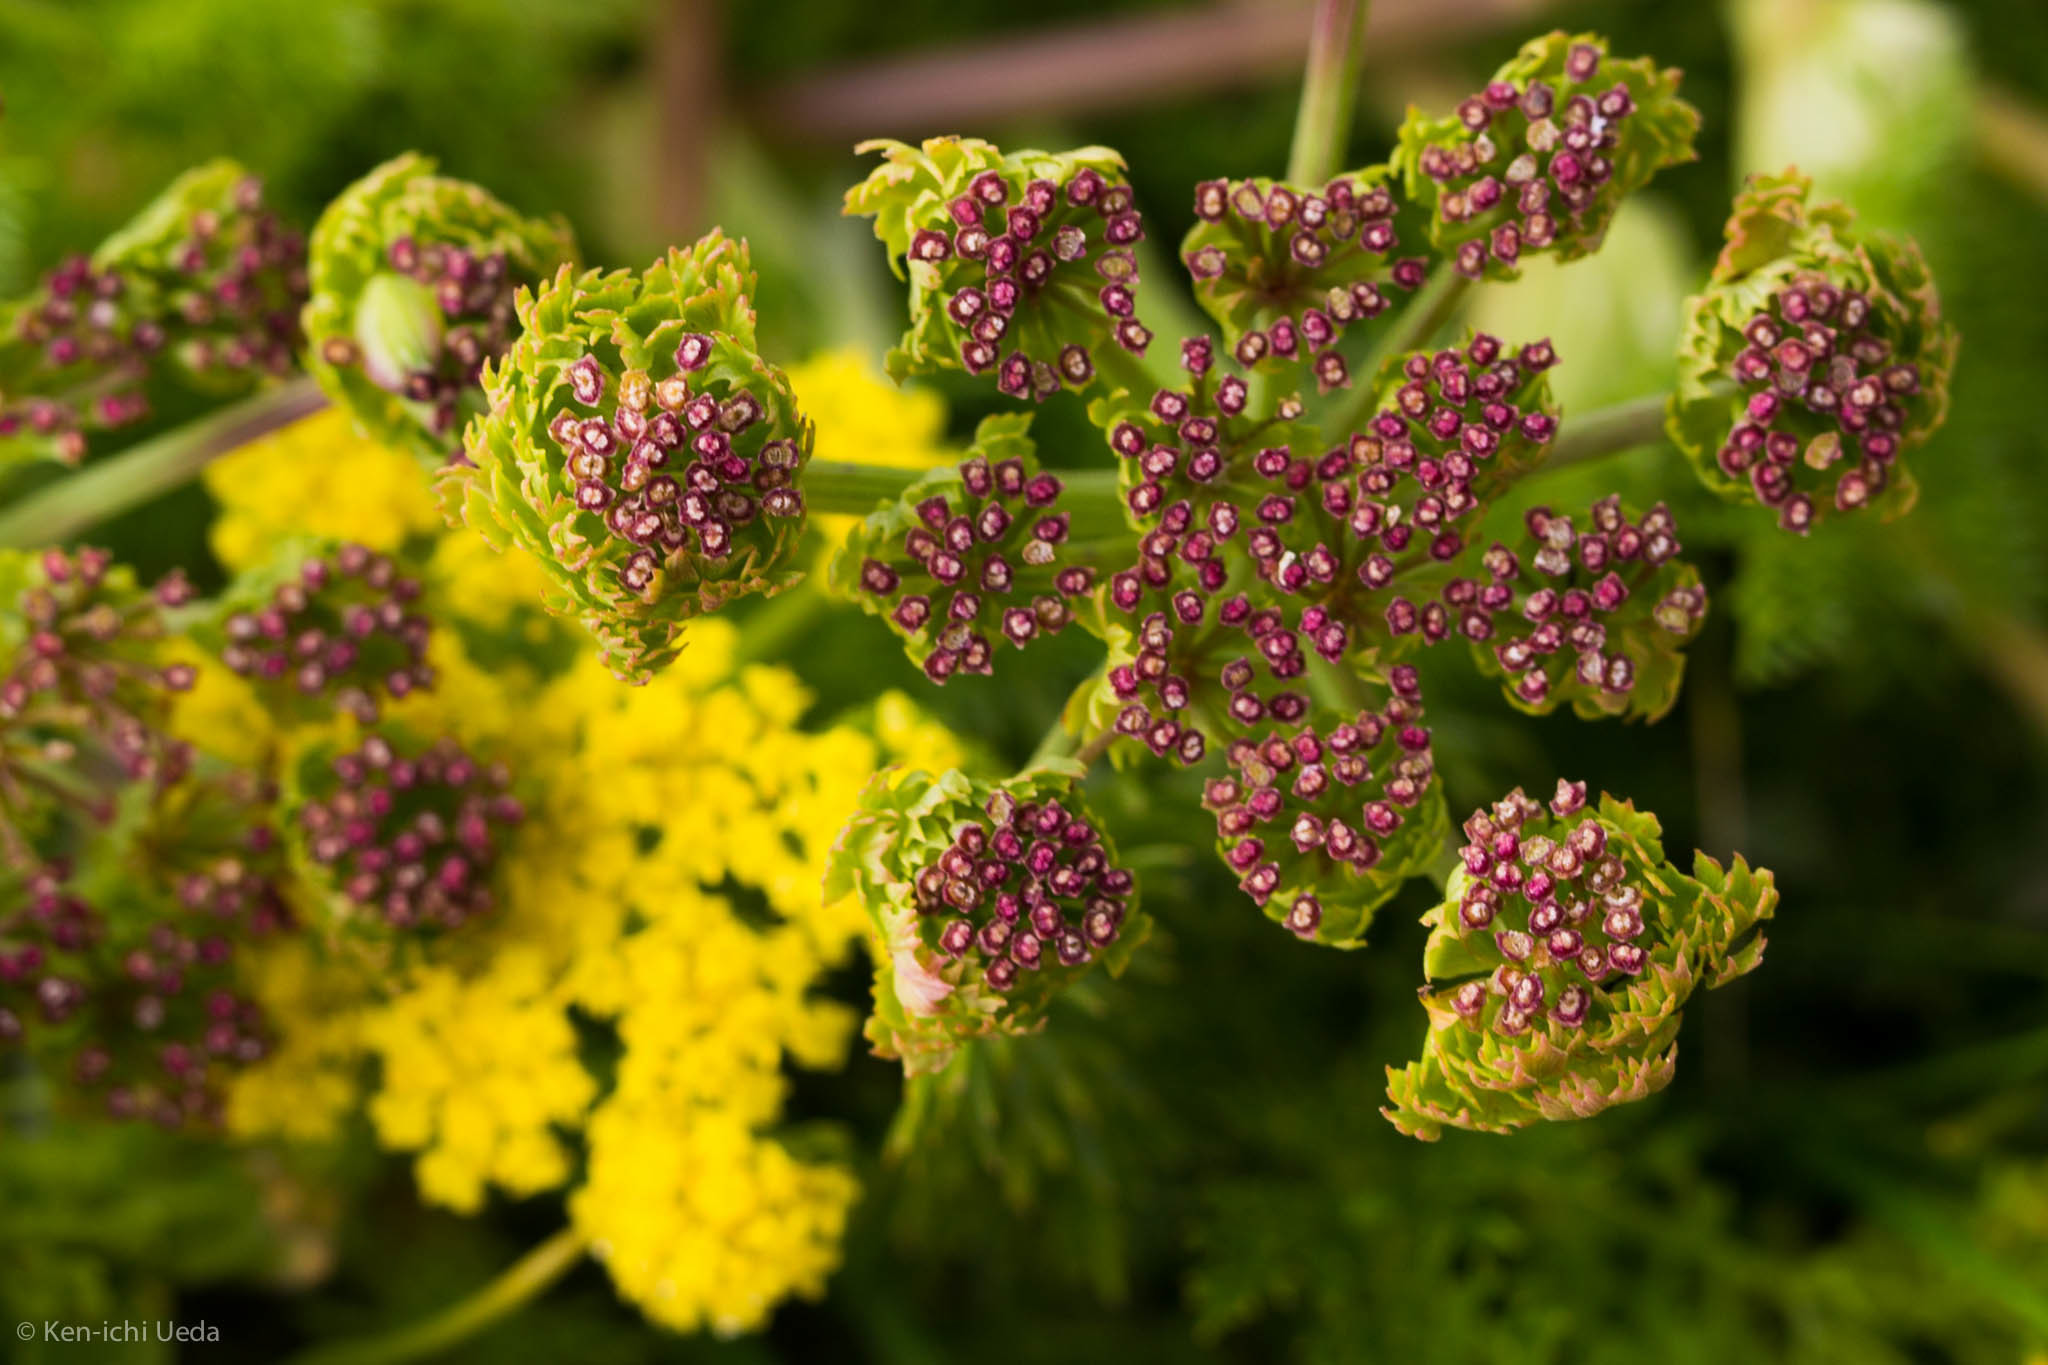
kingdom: Plantae
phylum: Tracheophyta
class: Magnoliopsida
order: Apiales
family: Apiaceae
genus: Lomatium
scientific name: Lomatium utriculatum
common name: Fine-leaf desert-parsley
